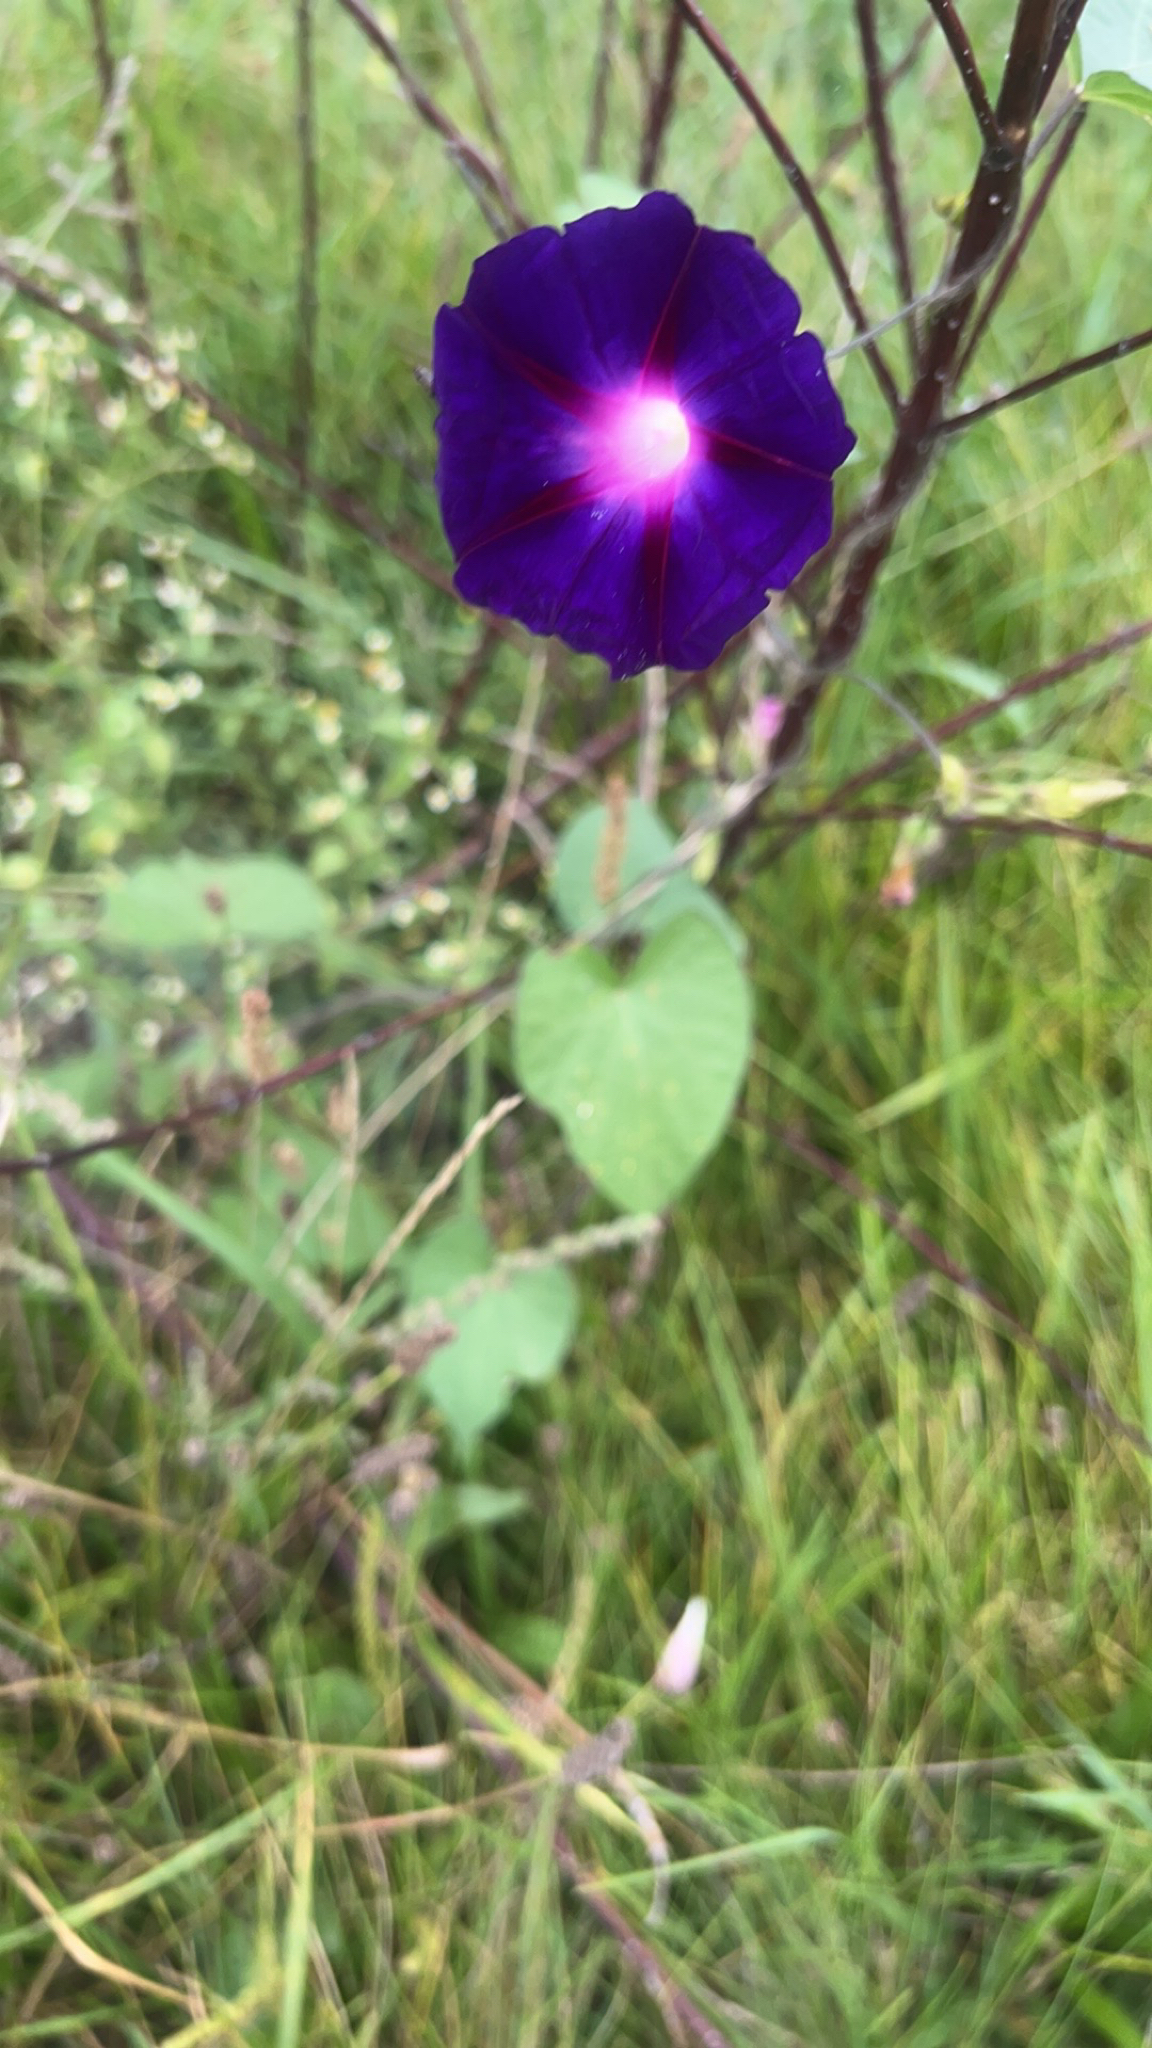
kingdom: Plantae
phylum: Tracheophyta
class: Magnoliopsida
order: Solanales
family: Convolvulaceae
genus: Ipomoea
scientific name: Ipomoea purpurea
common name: Common morning-glory
